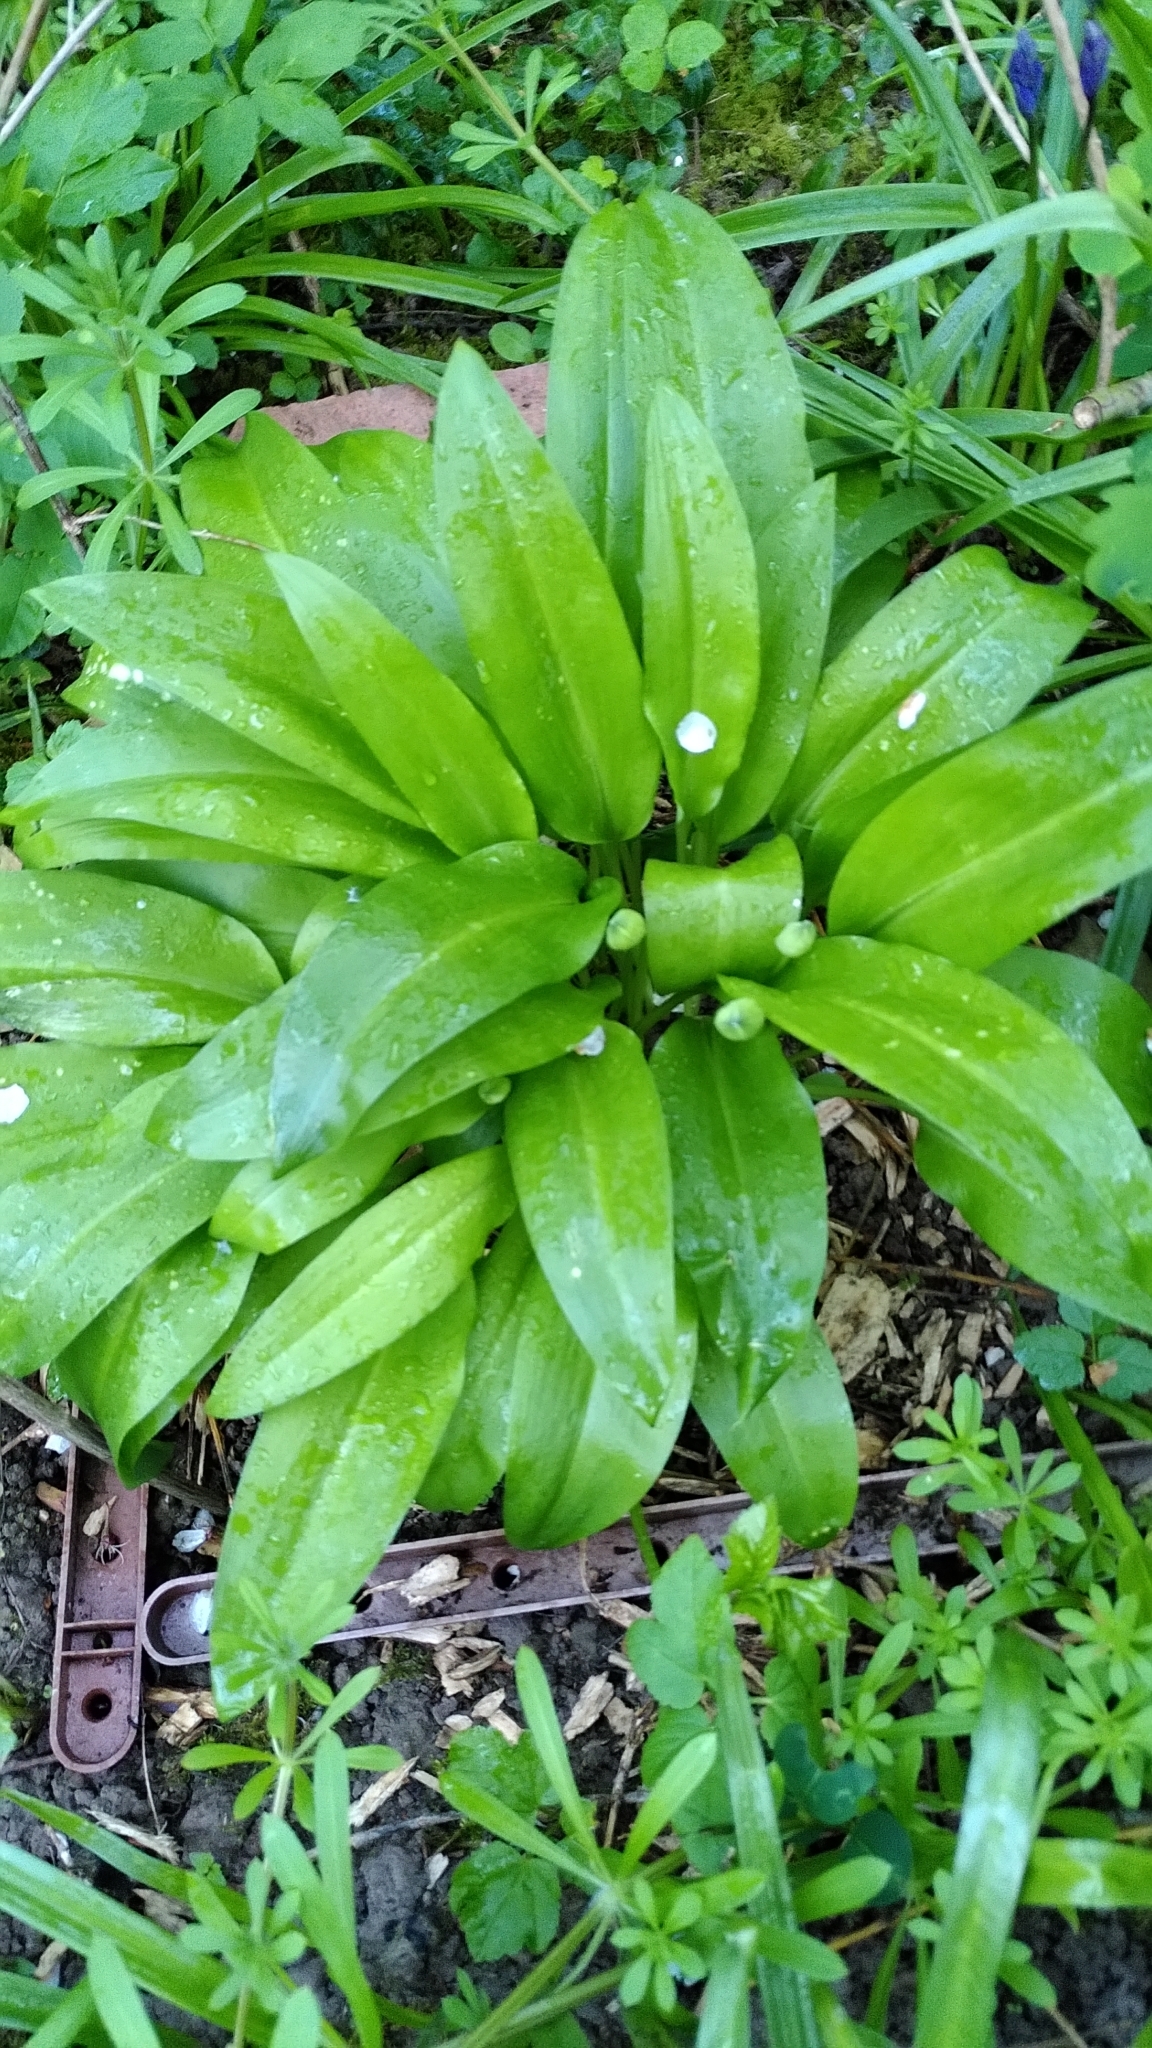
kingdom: Plantae
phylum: Tracheophyta
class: Liliopsida
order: Asparagales
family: Amaryllidaceae
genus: Allium
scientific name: Allium ursinum
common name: Ramsons
